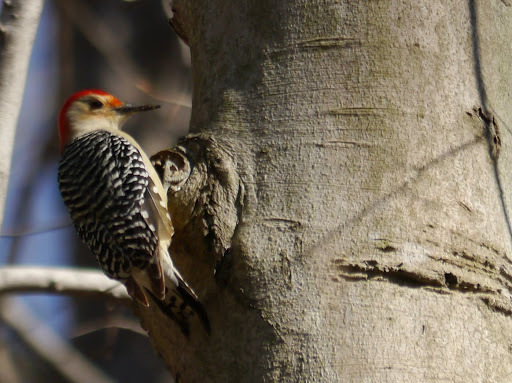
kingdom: Animalia
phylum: Chordata
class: Aves
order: Piciformes
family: Picidae
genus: Melanerpes
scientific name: Melanerpes carolinus
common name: Red-bellied woodpecker
